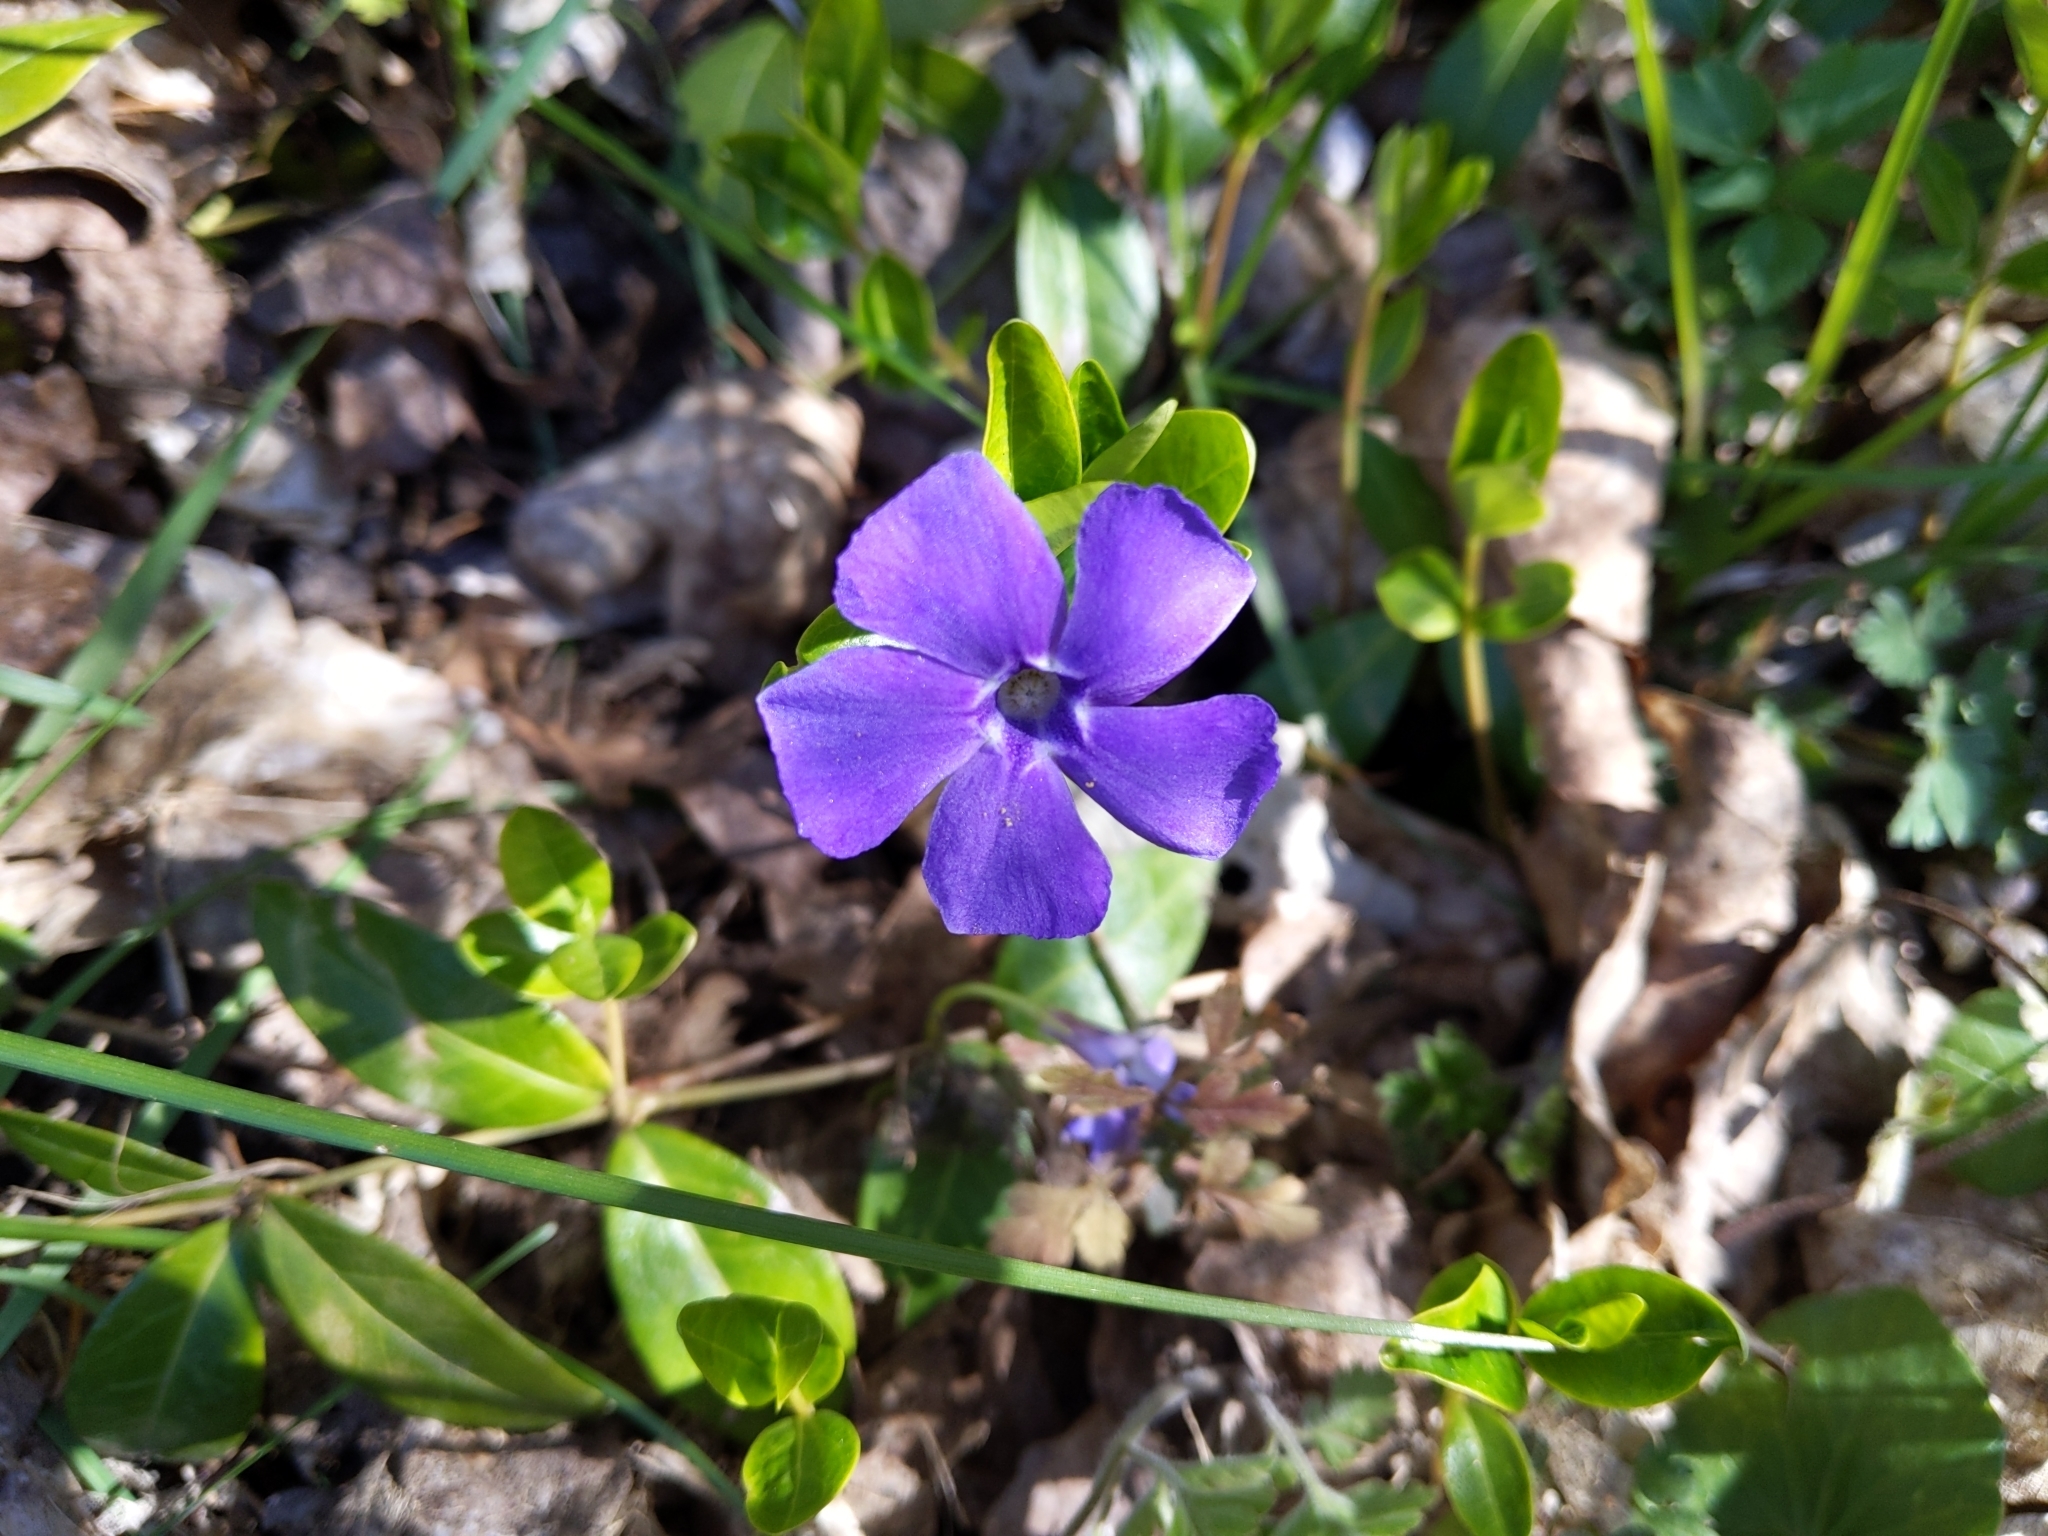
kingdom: Plantae
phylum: Tracheophyta
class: Magnoliopsida
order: Gentianales
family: Apocynaceae
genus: Vinca
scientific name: Vinca minor
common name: Lesser periwinkle
